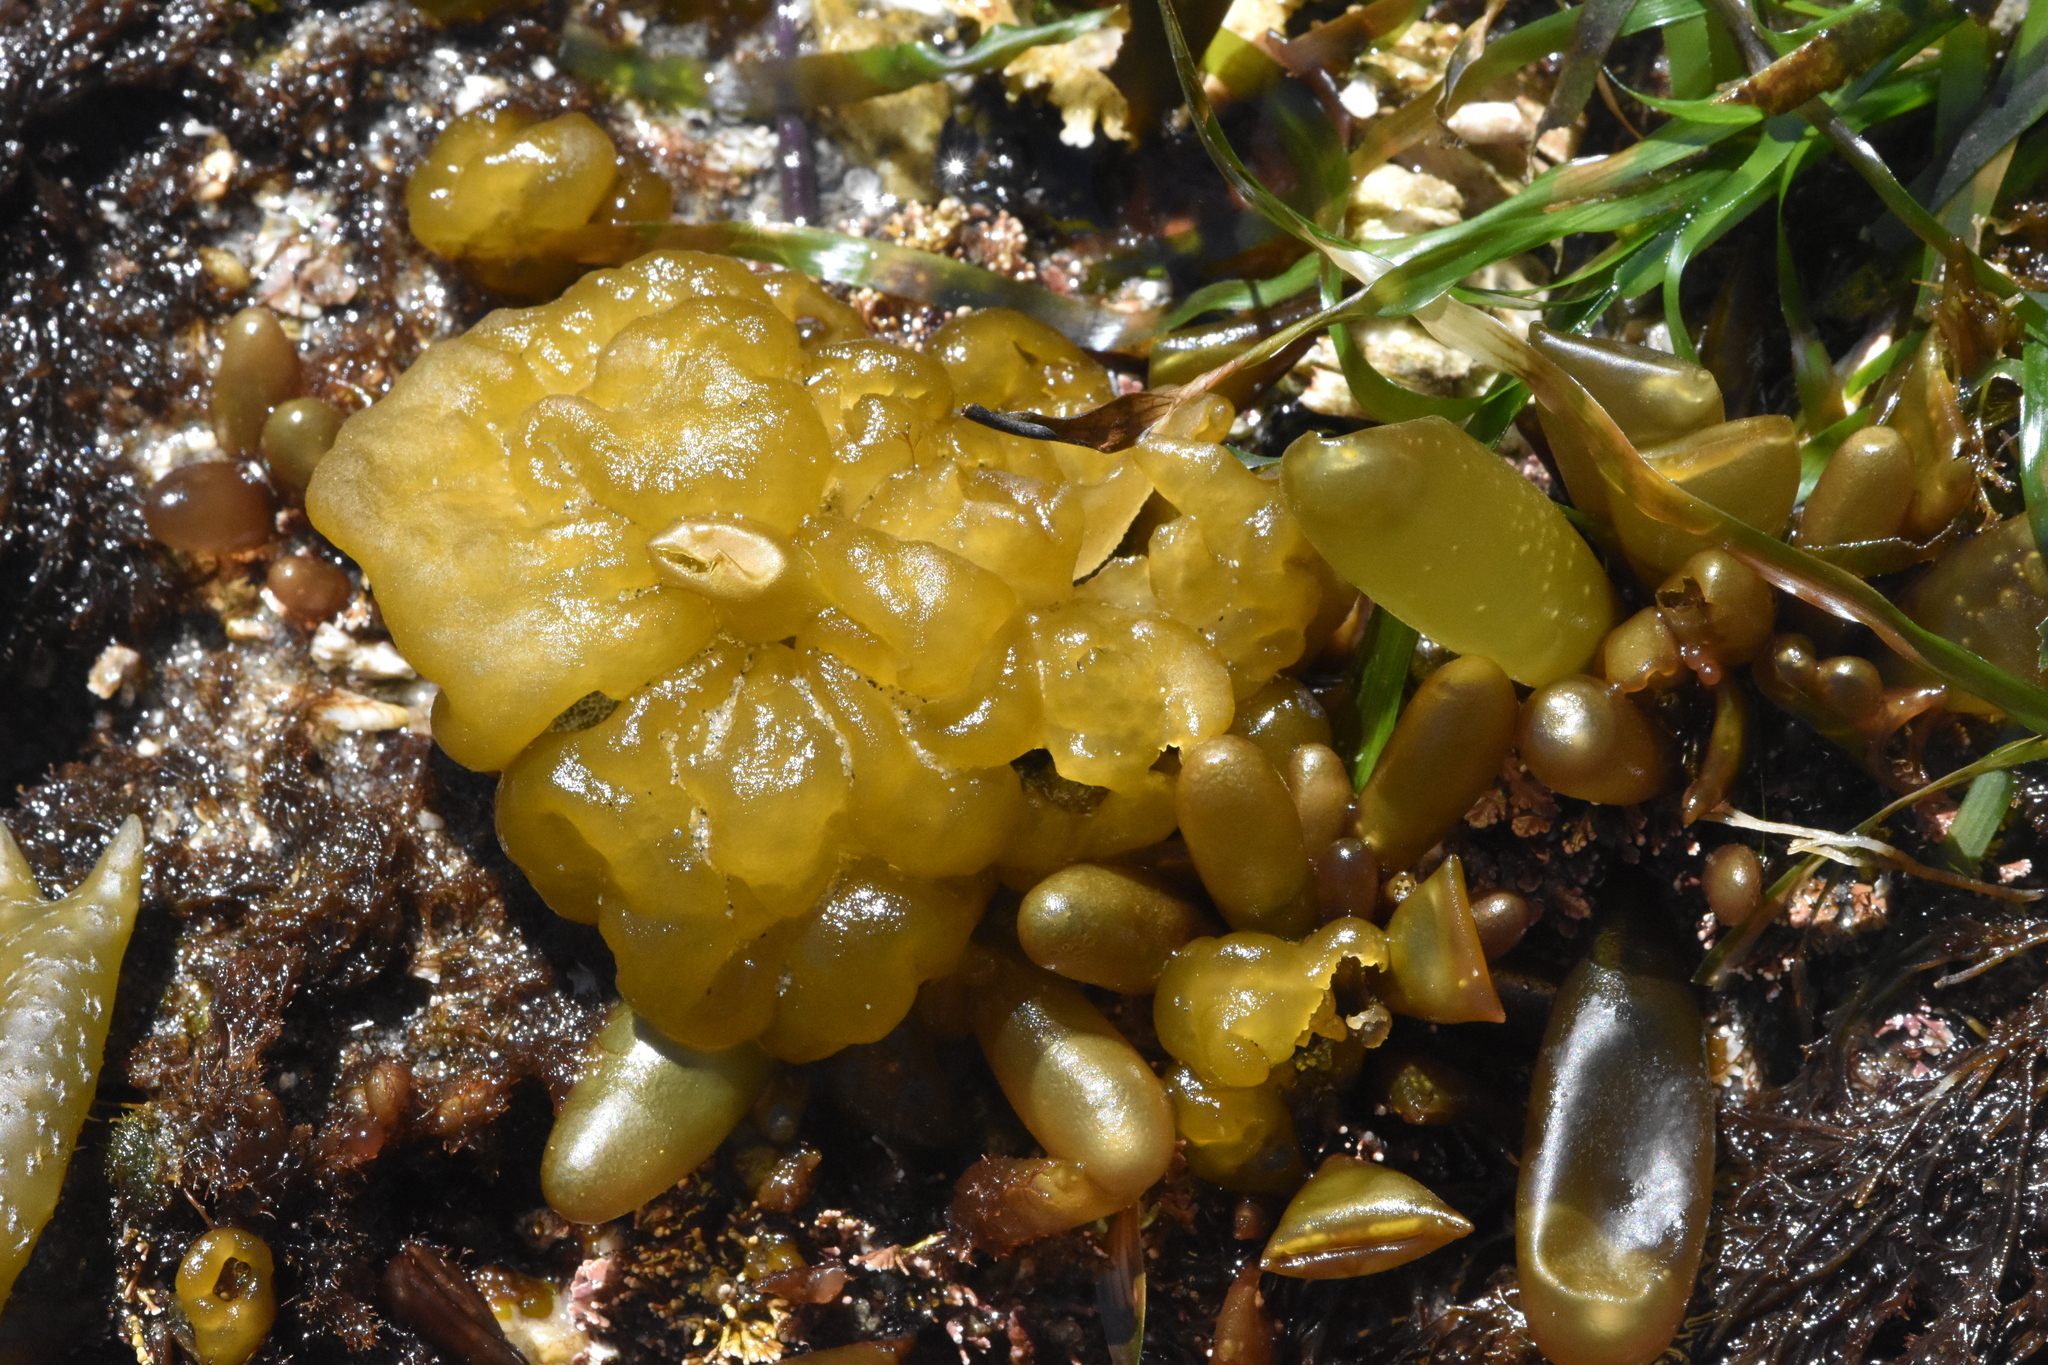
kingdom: Chromista
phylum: Ochrophyta
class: Phaeophyceae
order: Ectocarpales
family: Chordariaceae
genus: Leathesia
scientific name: Leathesia marina
